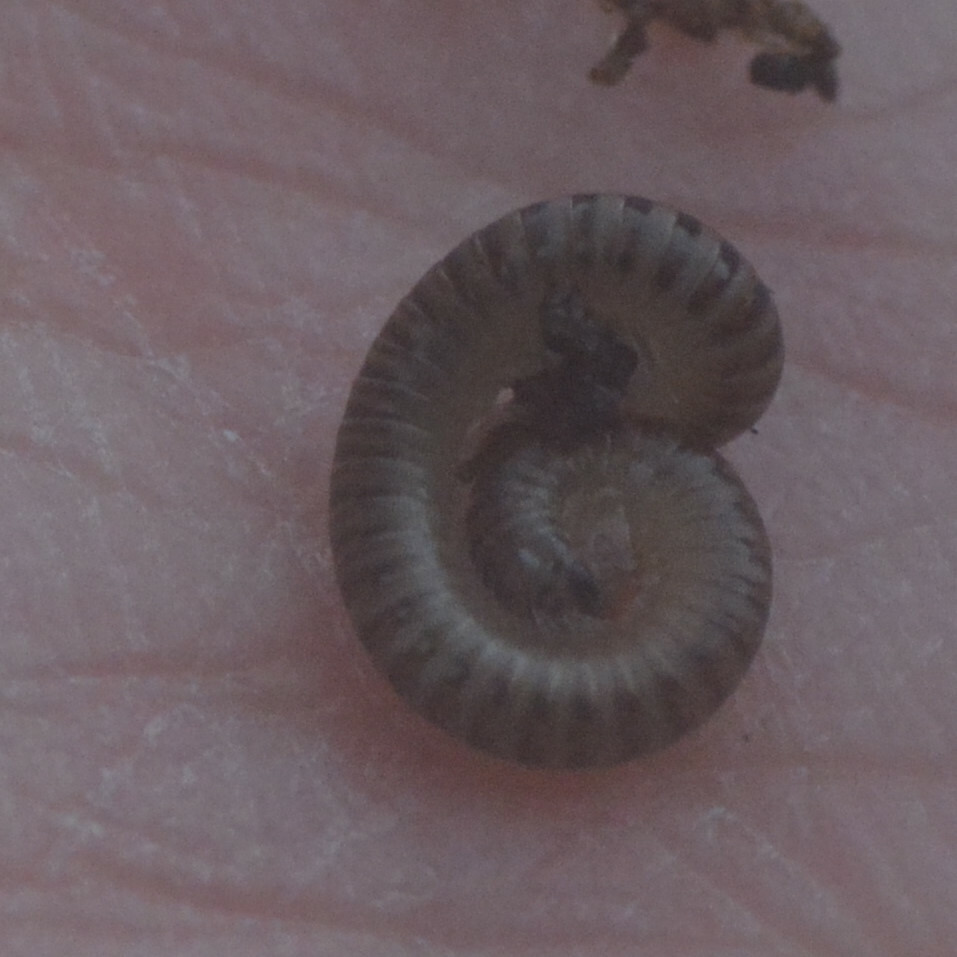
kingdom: Animalia
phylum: Arthropoda
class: Diplopoda
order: Julida
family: Julidae
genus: Cylindroiulus
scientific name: Cylindroiulus punctatus
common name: Blunt-tailed millipede
